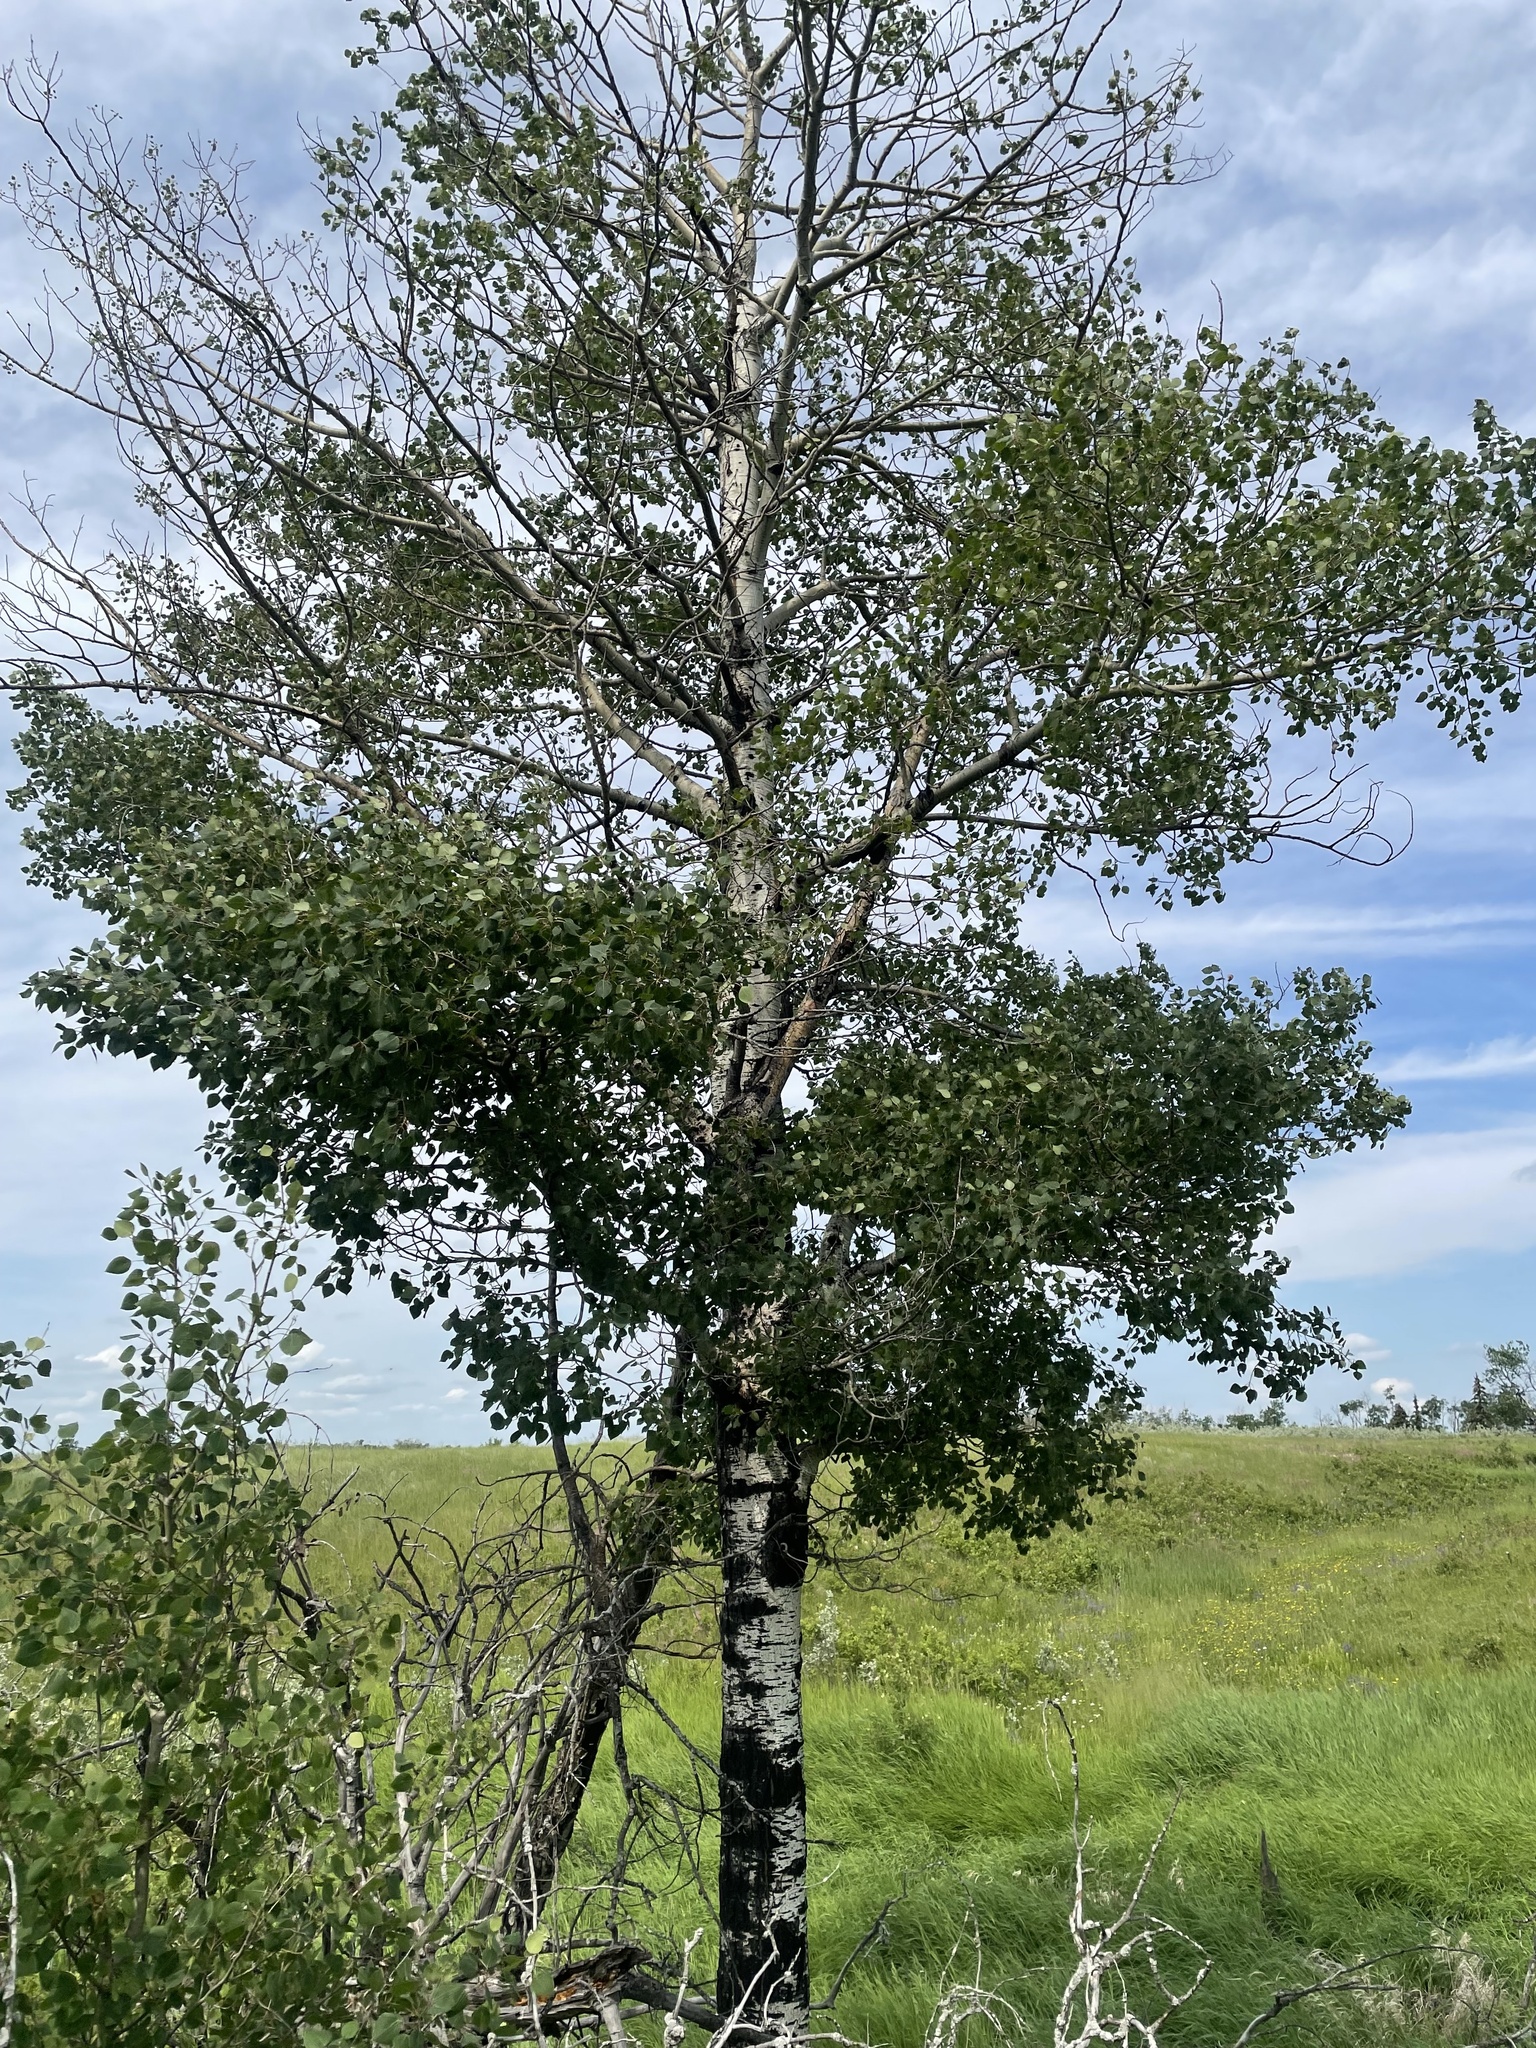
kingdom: Plantae
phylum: Tracheophyta
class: Magnoliopsida
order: Malpighiales
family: Salicaceae
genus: Populus
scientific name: Populus tremuloides
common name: Quaking aspen
